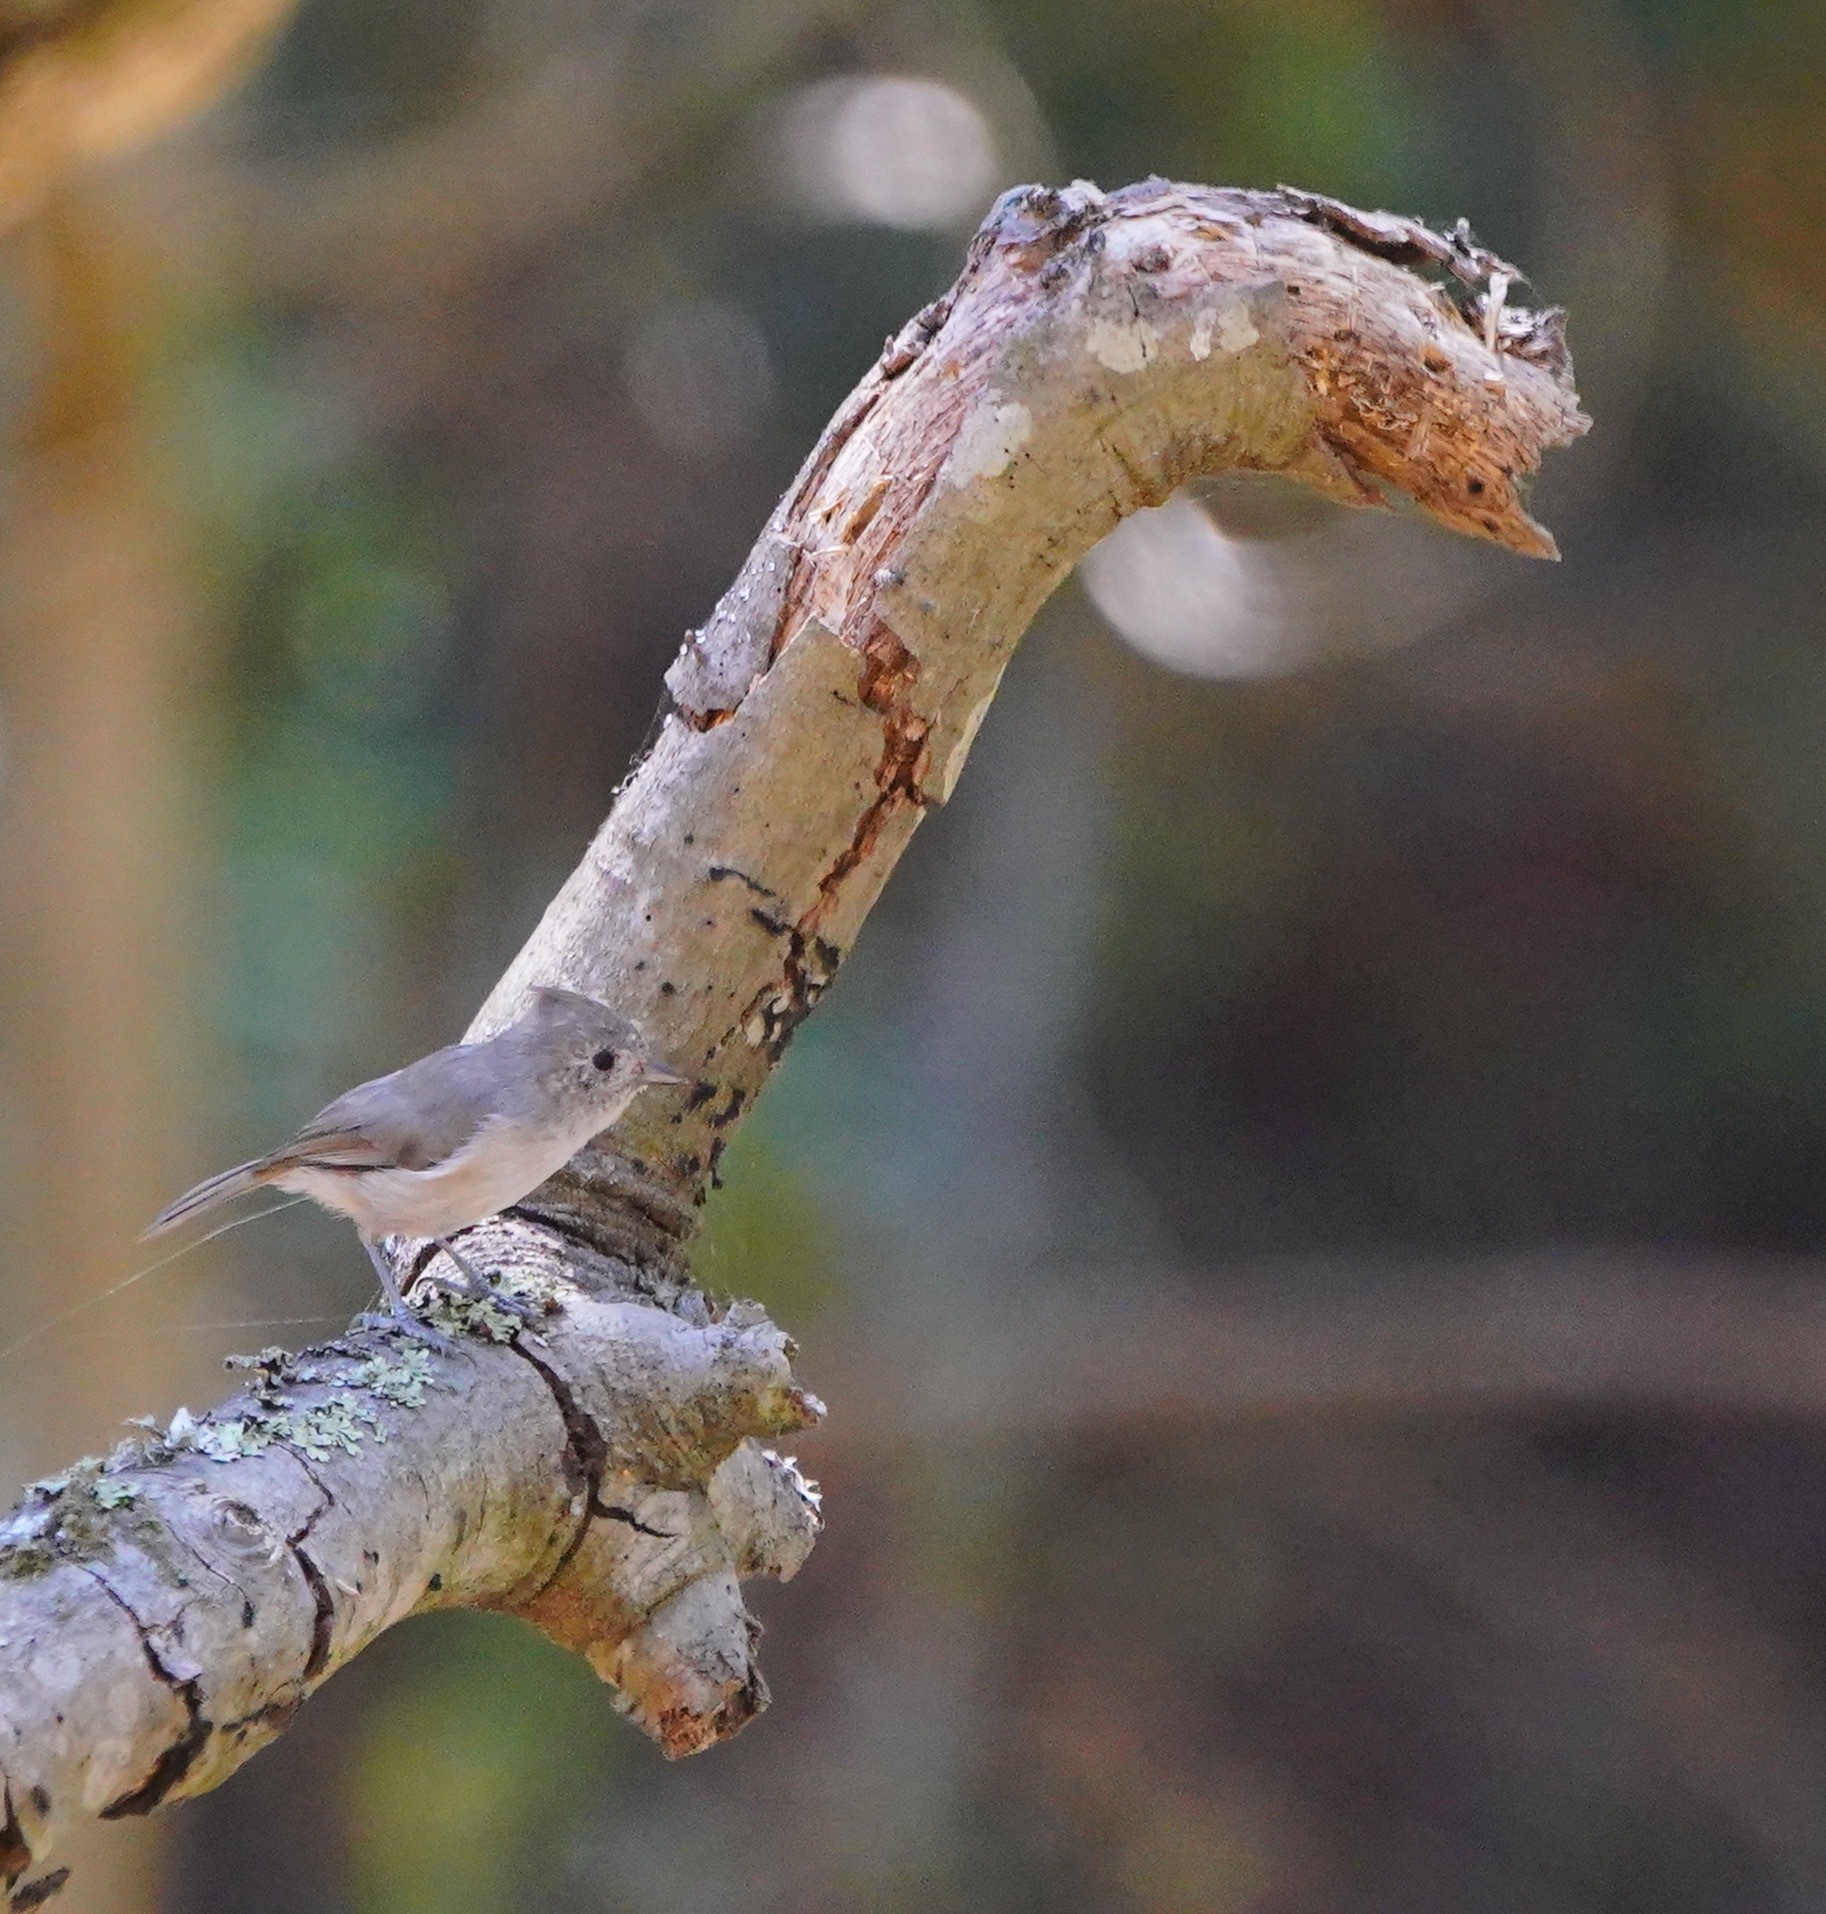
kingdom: Animalia
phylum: Chordata
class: Aves
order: Passeriformes
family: Paridae
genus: Baeolophus
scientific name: Baeolophus inornatus
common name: Oak titmouse
